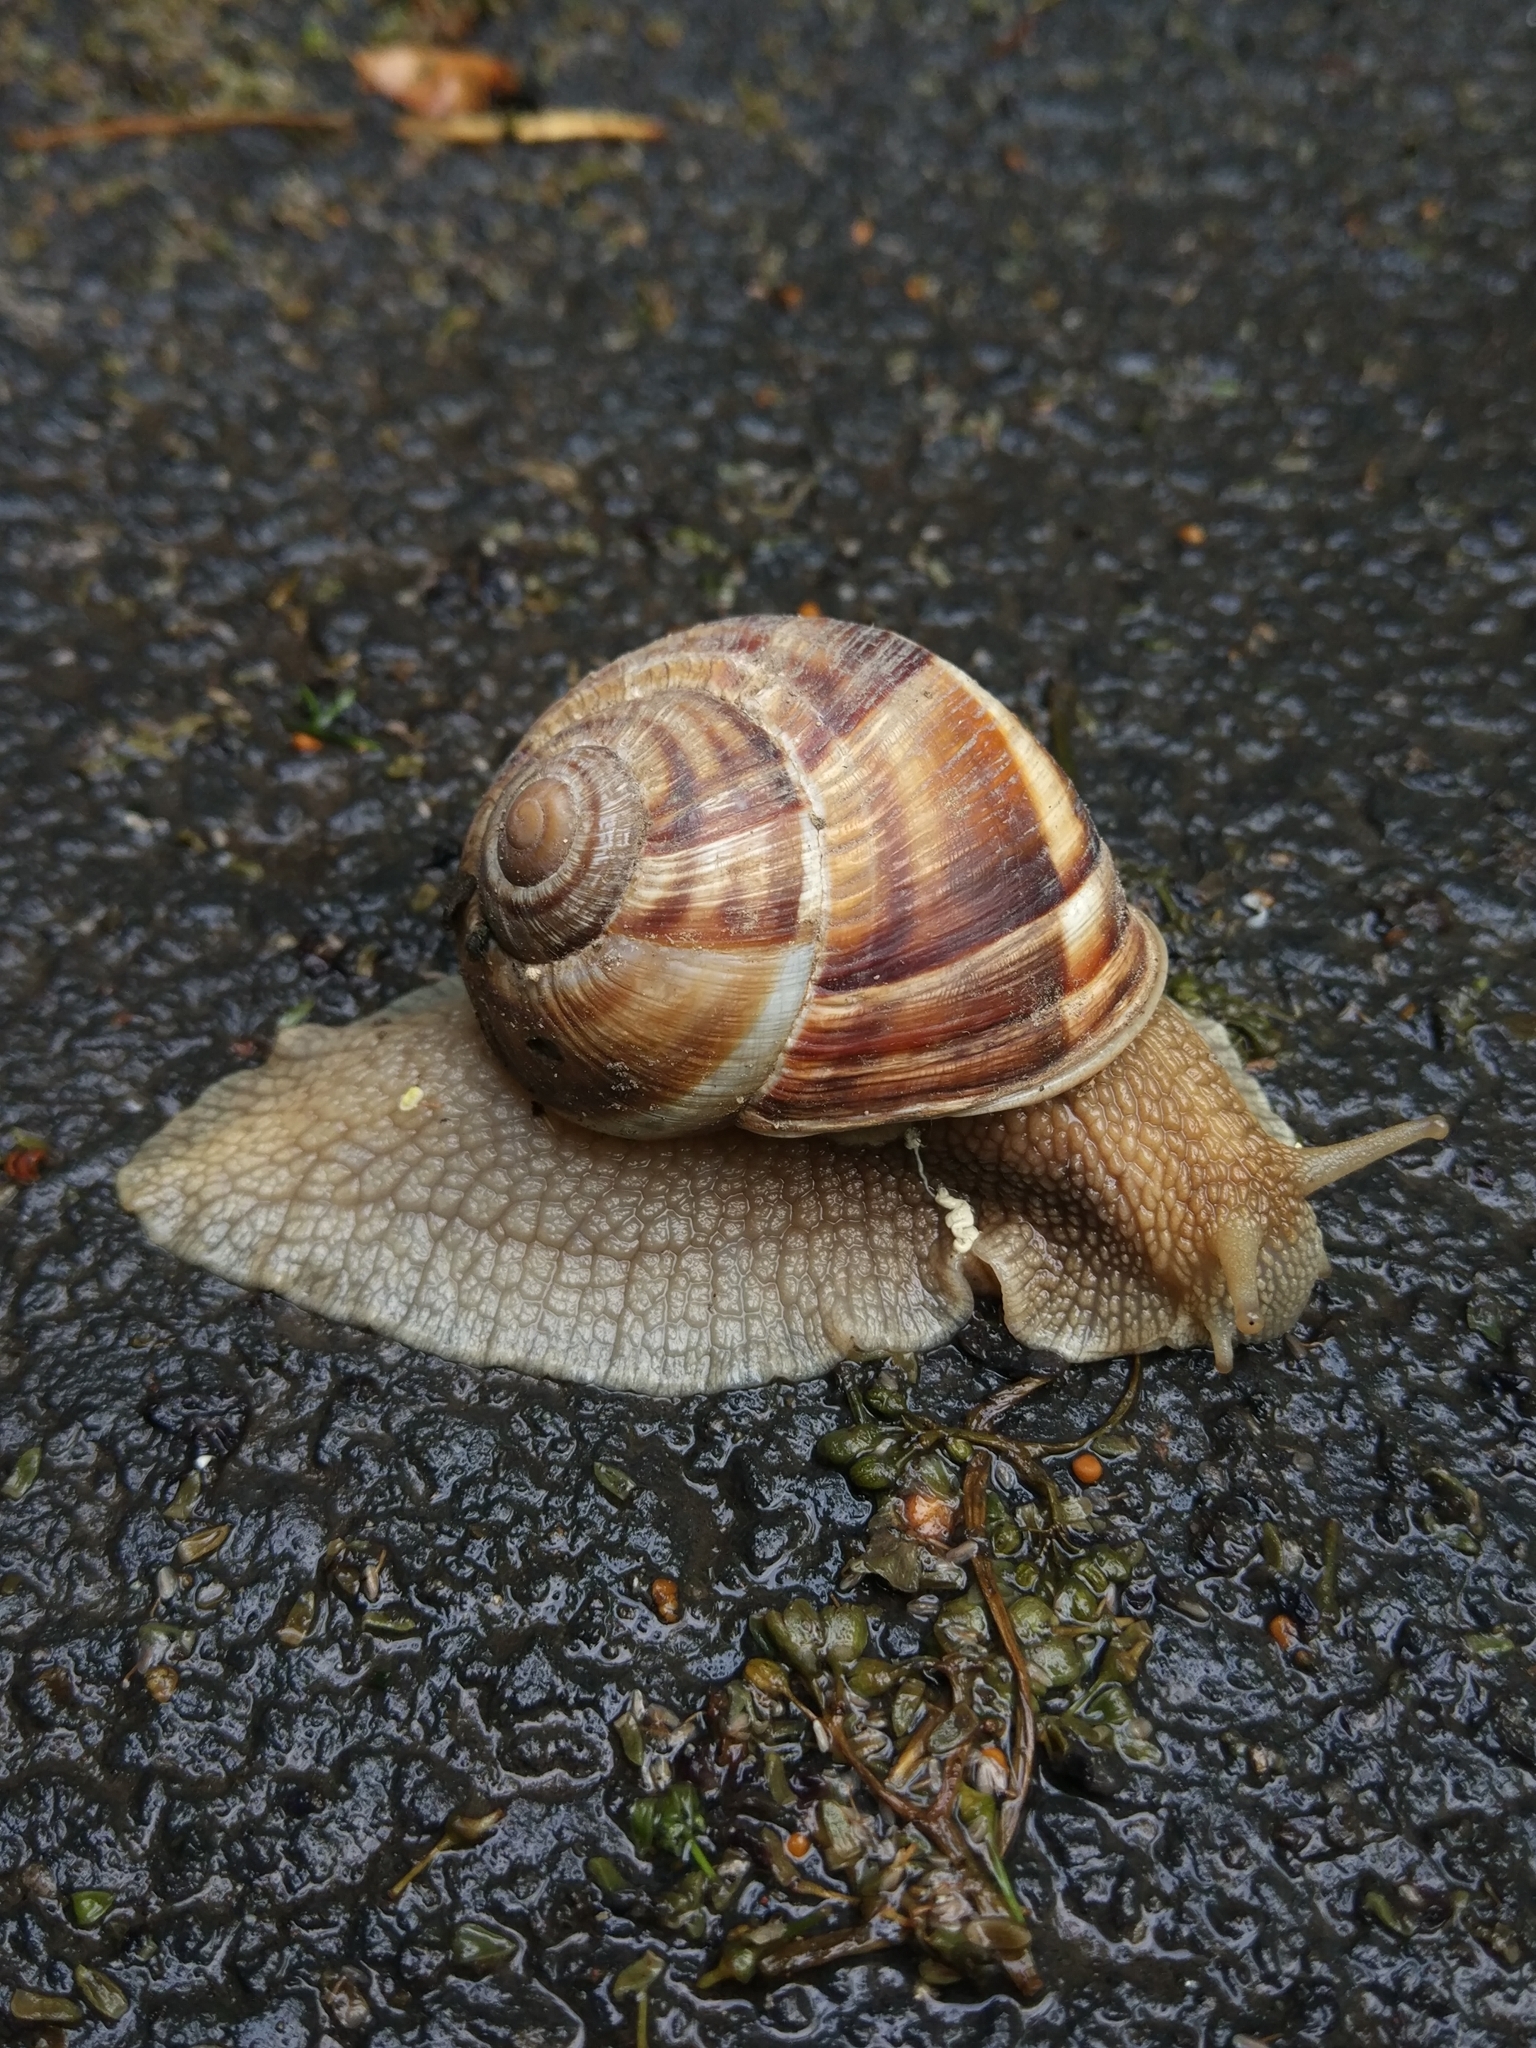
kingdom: Animalia
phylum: Mollusca
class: Gastropoda
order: Stylommatophora
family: Helicidae
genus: Helix
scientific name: Helix lucorum
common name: Turkish snail
